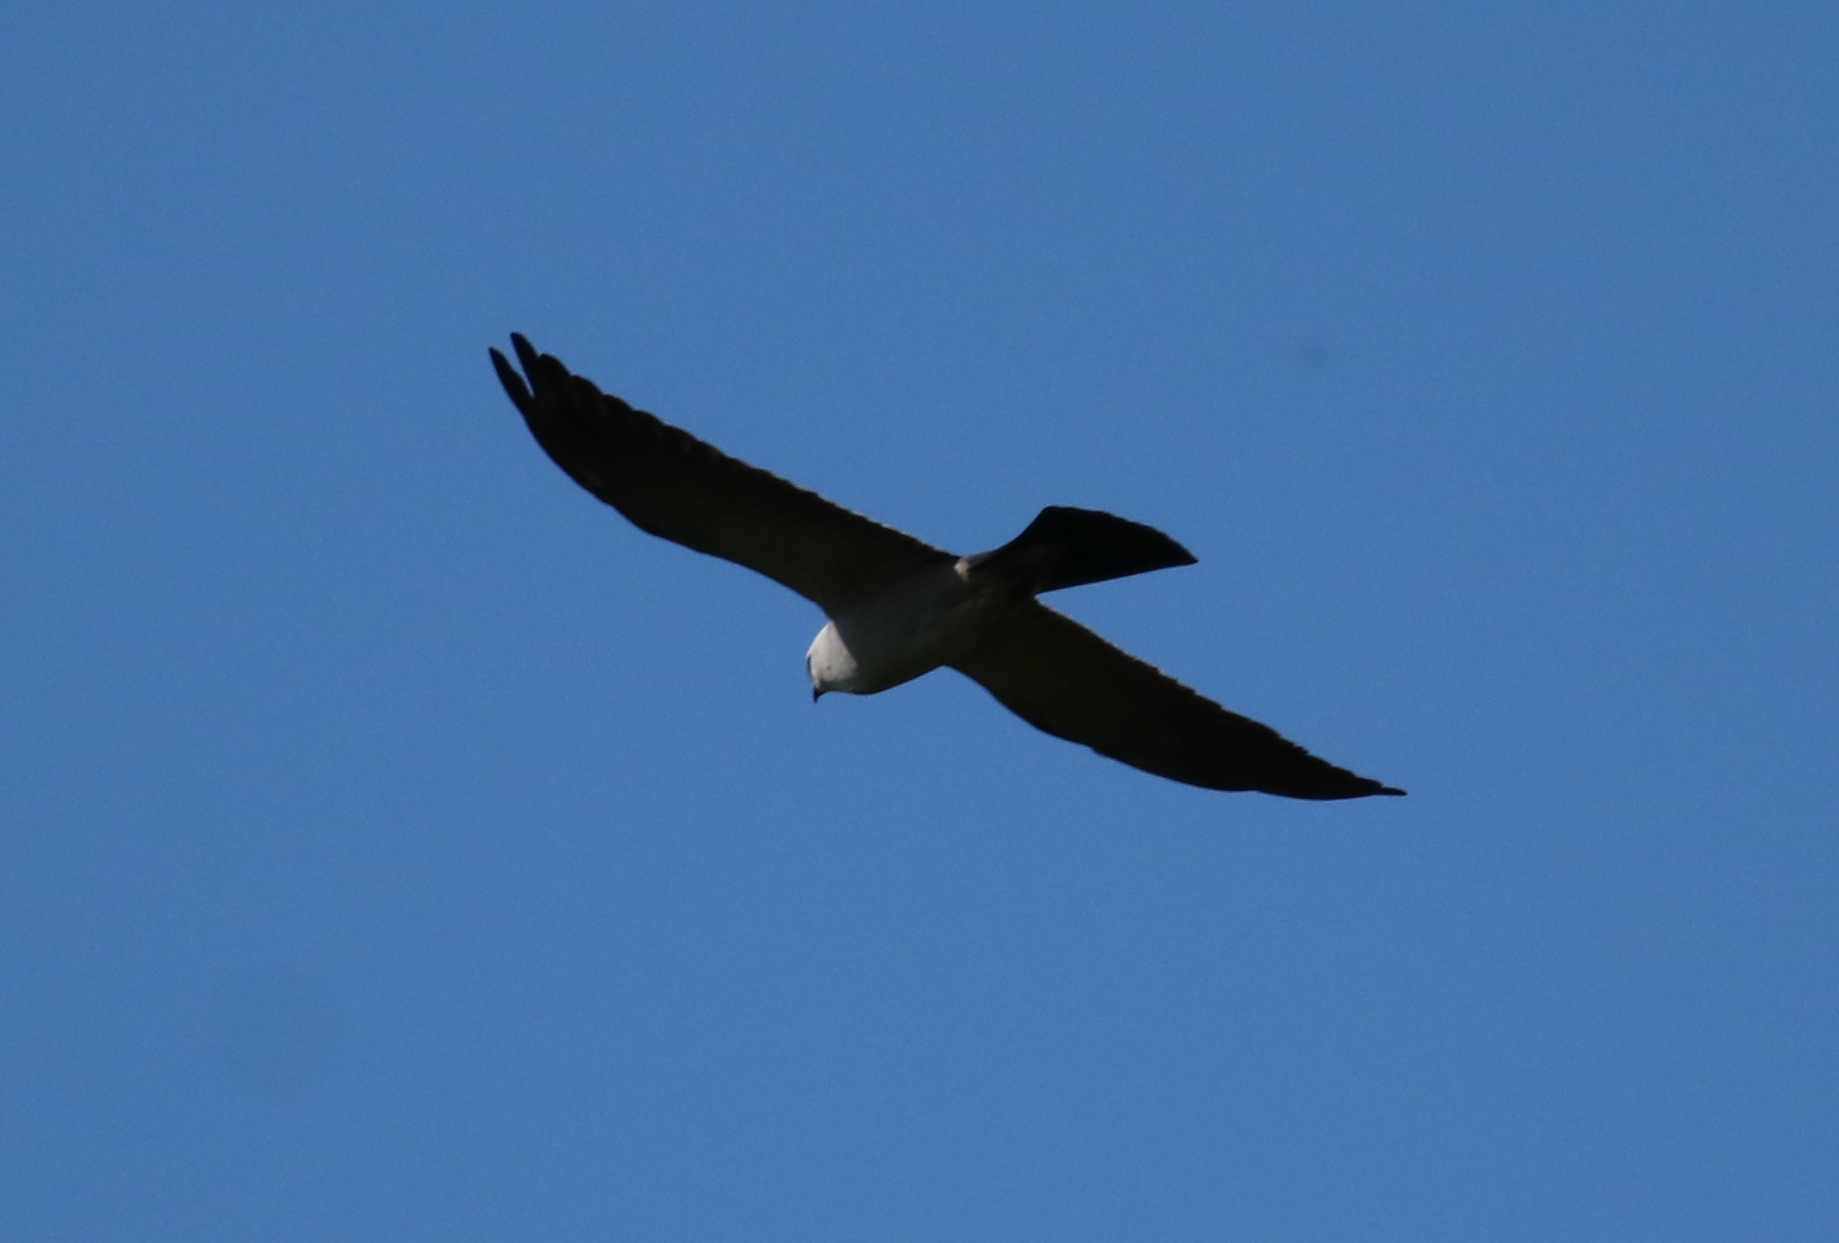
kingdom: Animalia
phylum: Chordata
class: Aves
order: Accipitriformes
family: Accipitridae
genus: Ictinia
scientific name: Ictinia mississippiensis
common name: Mississippi kite
